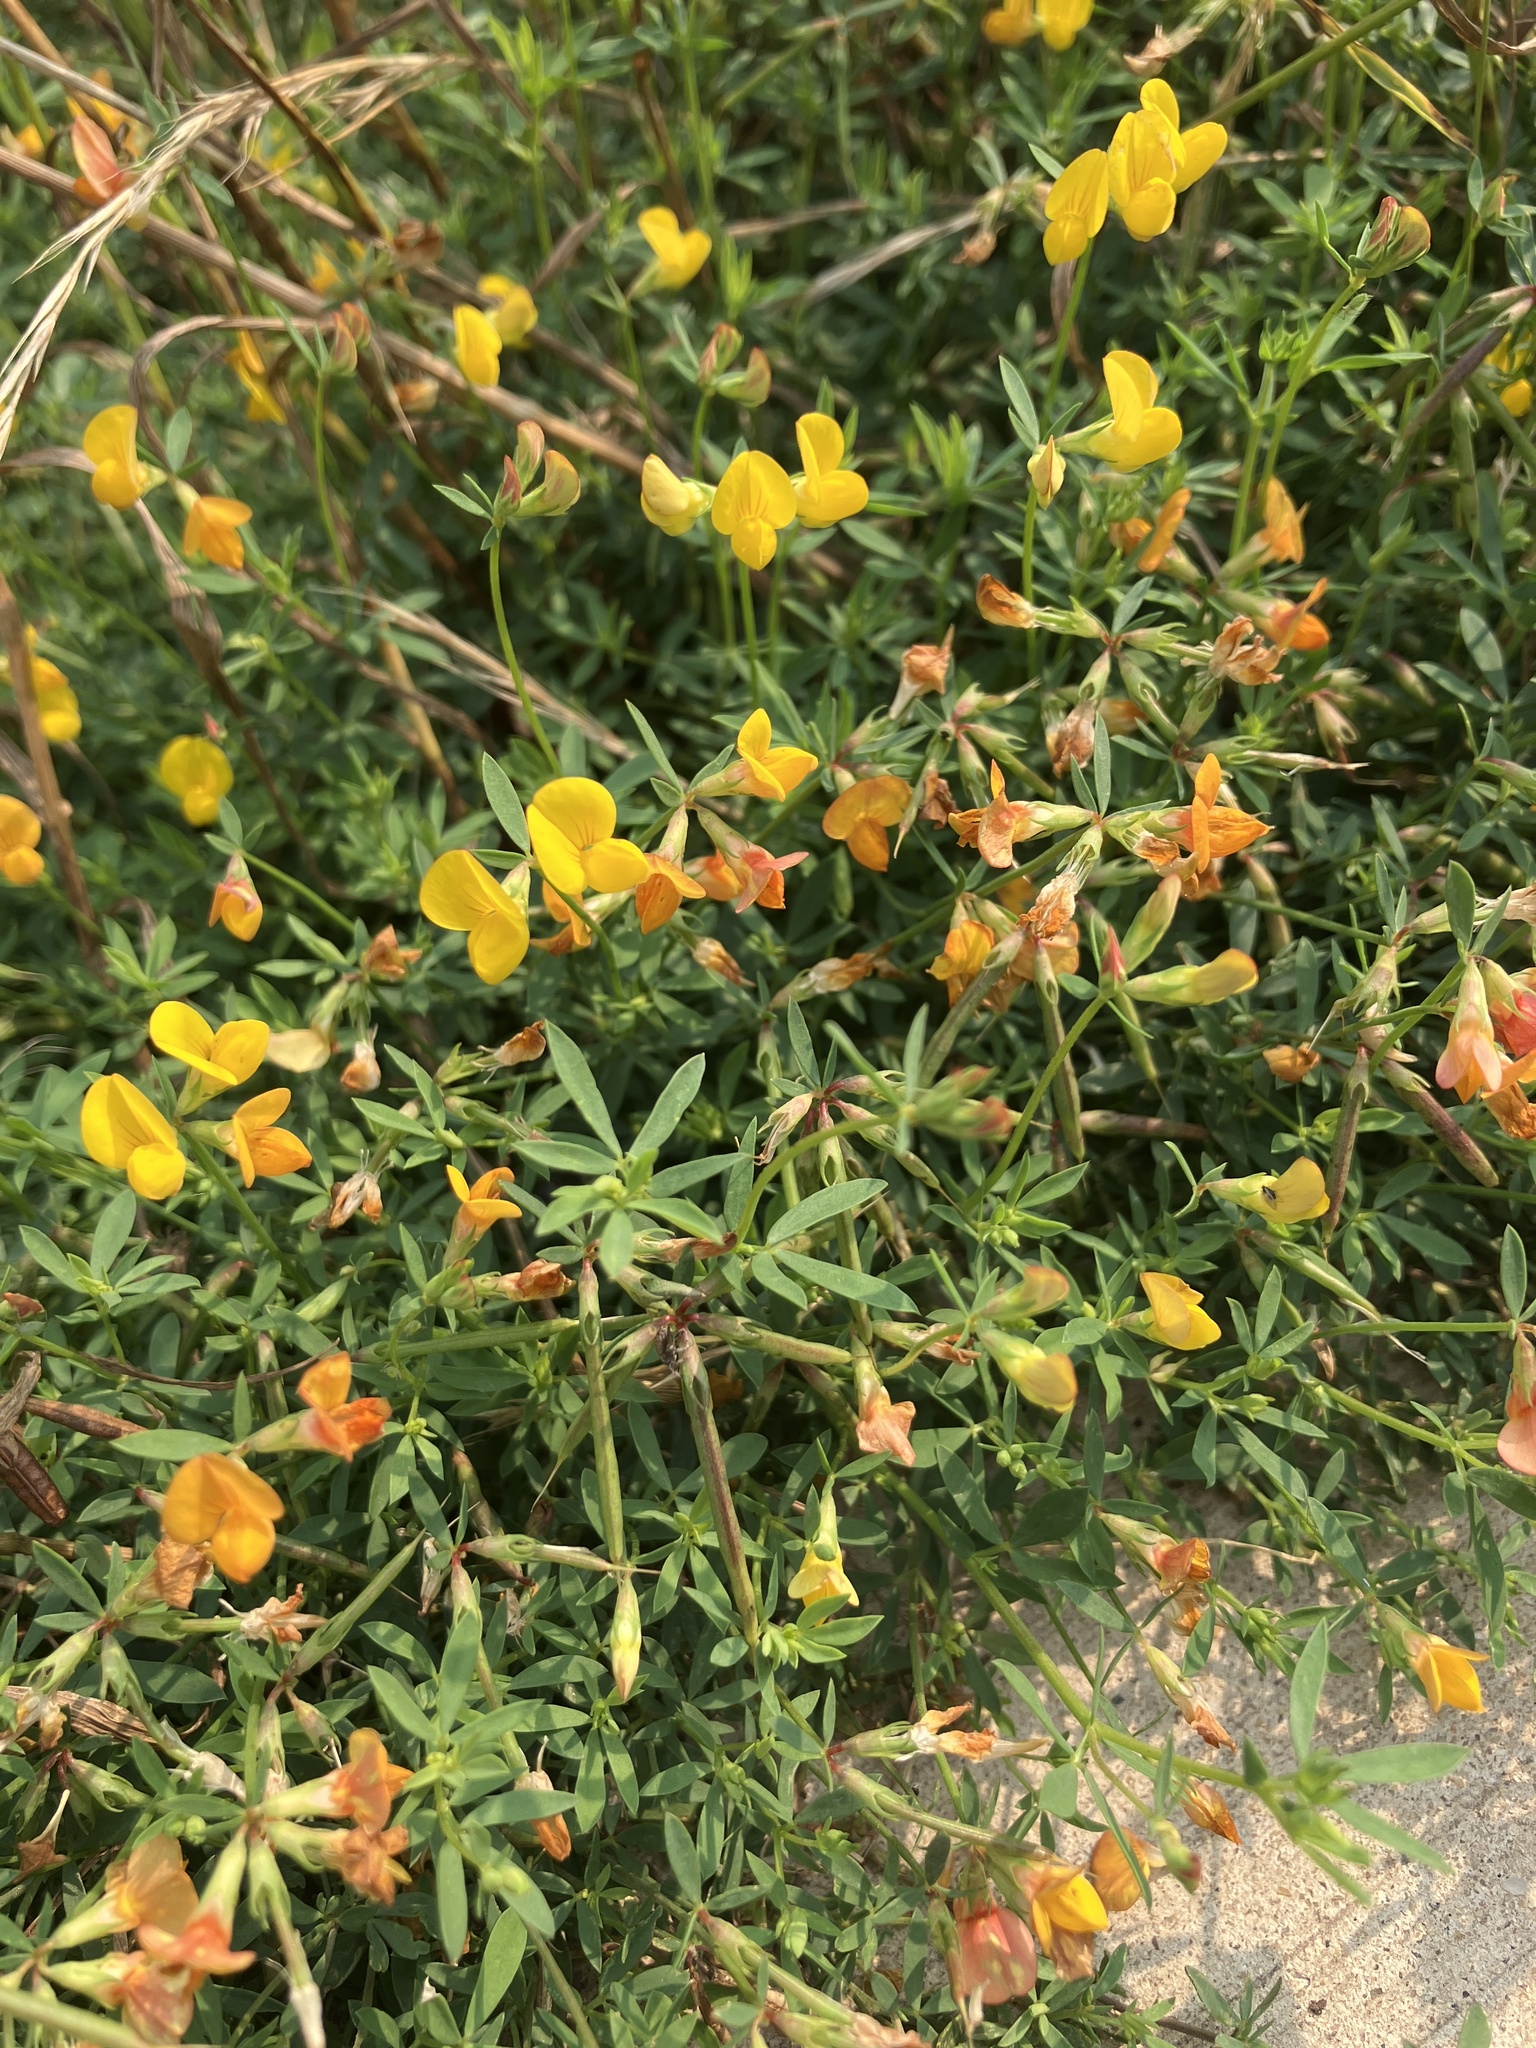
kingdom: Plantae
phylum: Tracheophyta
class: Magnoliopsida
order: Fabales
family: Fabaceae
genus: Lotus
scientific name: Lotus tenuis
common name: Narrow-leaved bird's-foot-trefoil
